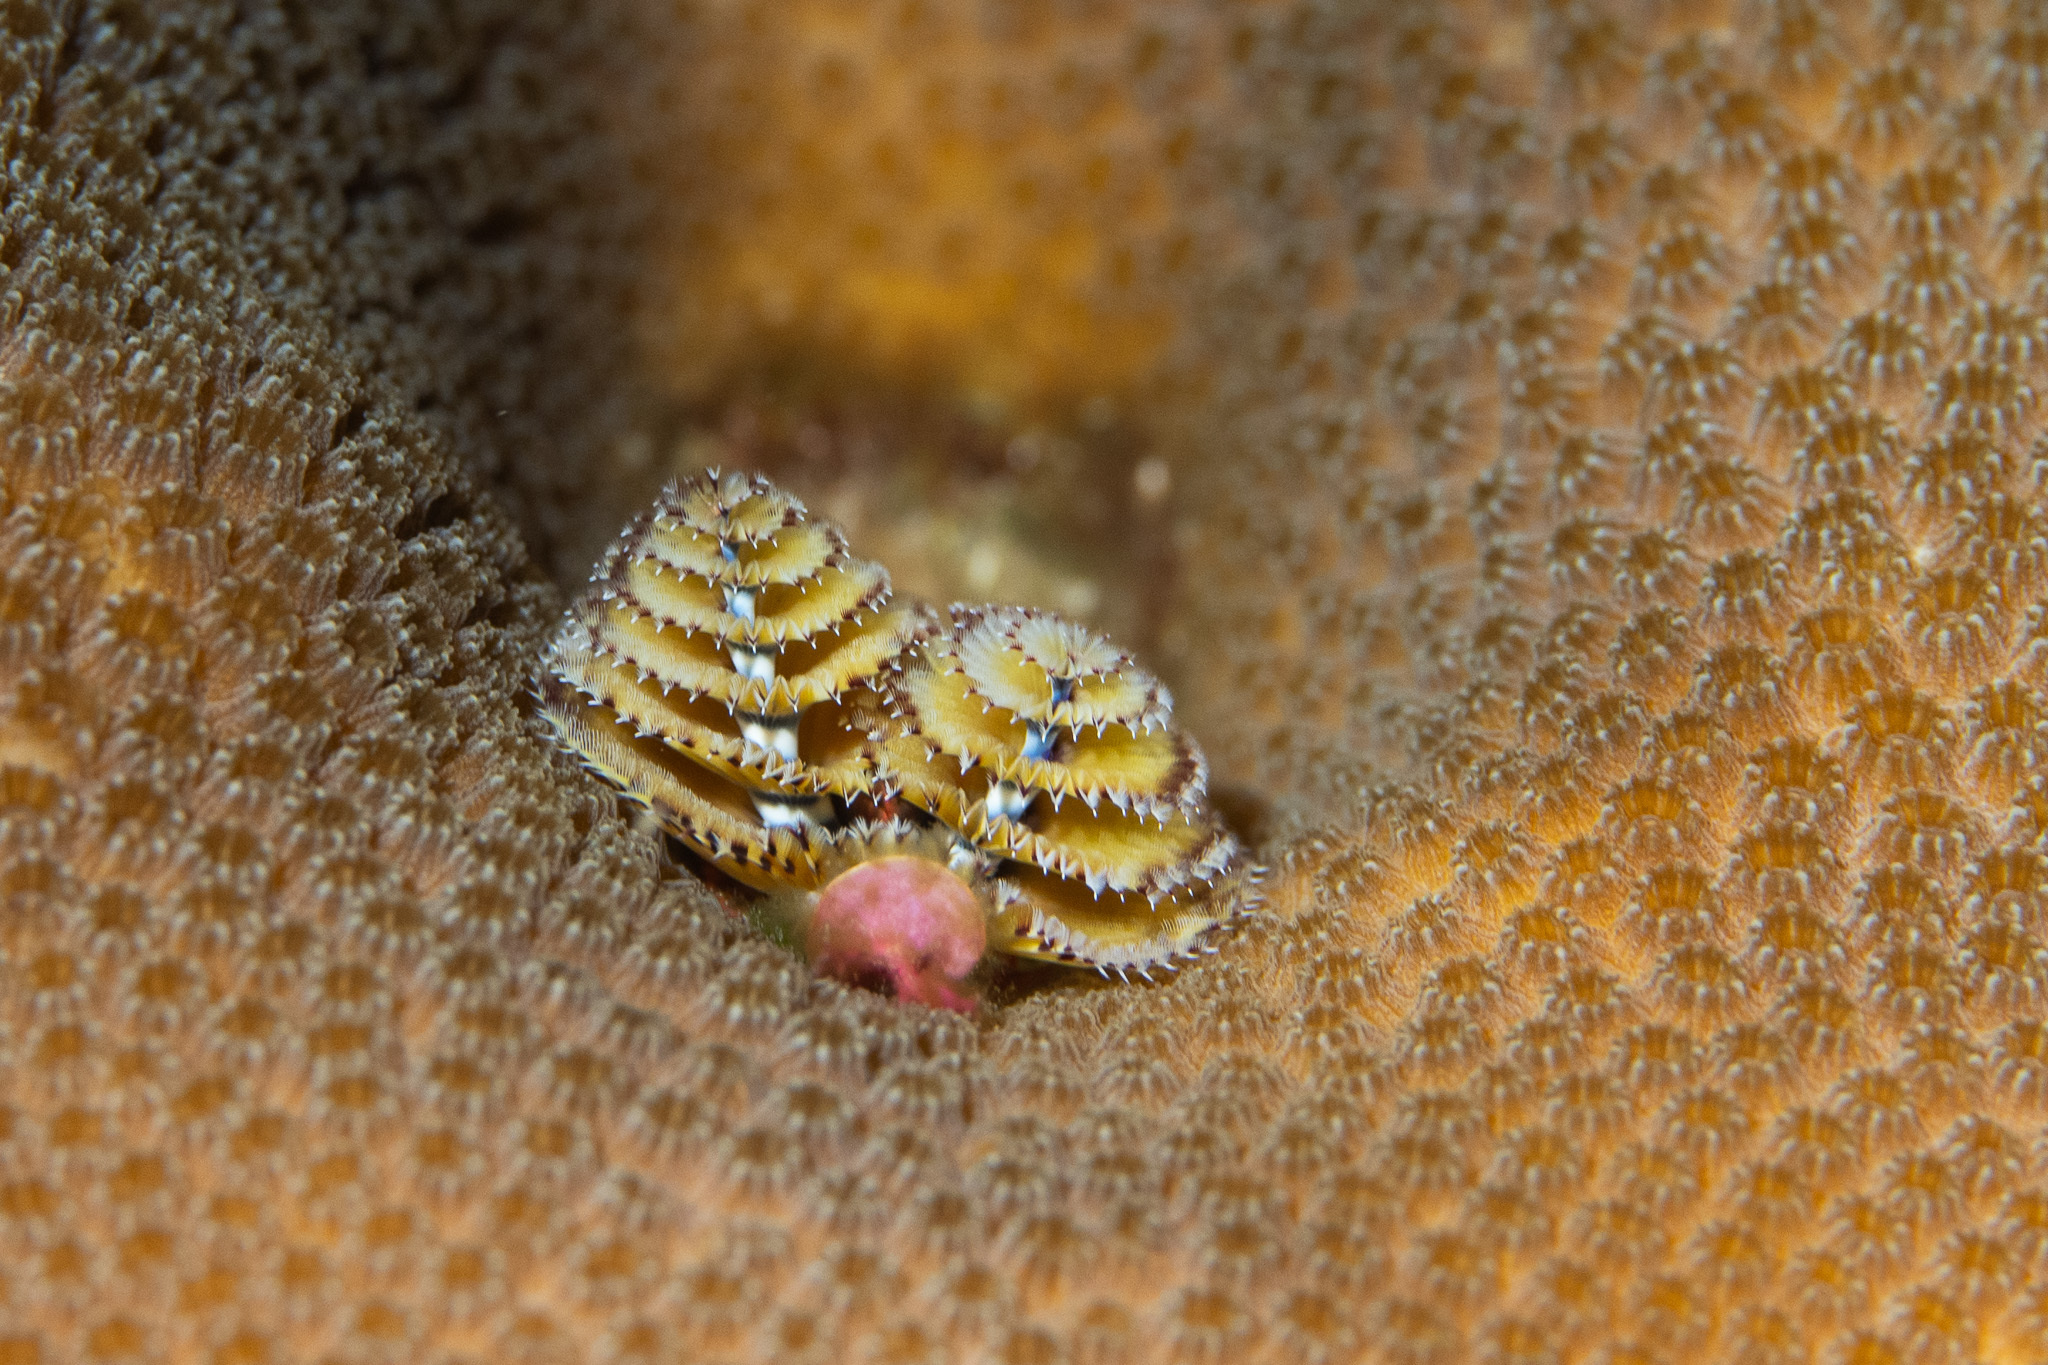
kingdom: Animalia
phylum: Annelida
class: Polychaeta
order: Sabellida
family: Serpulidae
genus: Spirobranchus
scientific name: Spirobranchus giganteus
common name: Christmas tree worm
